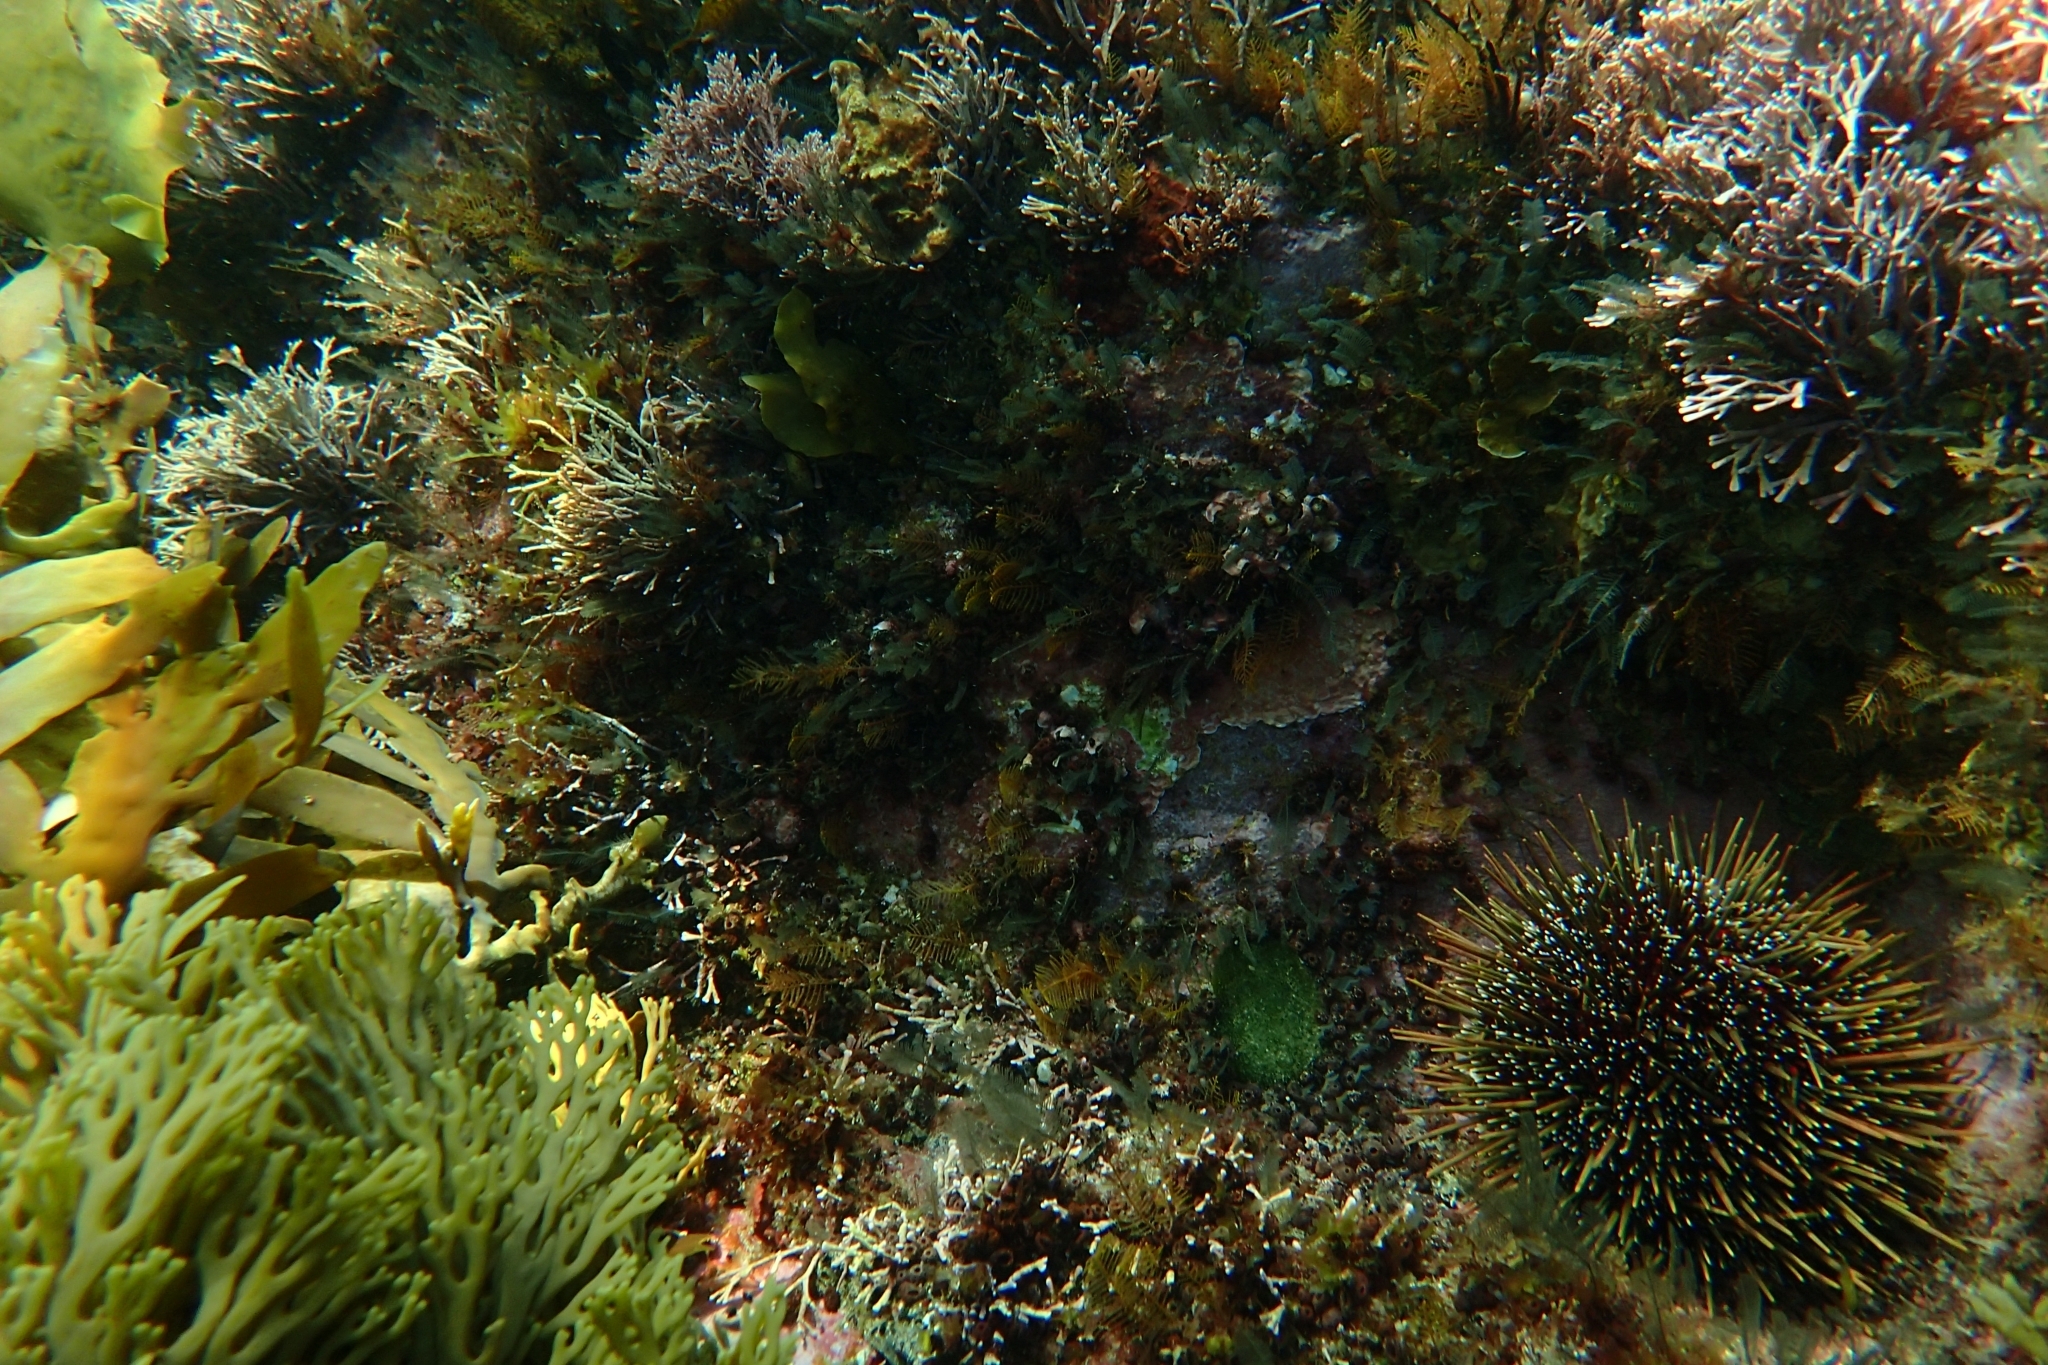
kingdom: Animalia
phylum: Echinodermata
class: Echinoidea
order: Camarodonta
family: Echinometridae
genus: Evechinus
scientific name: Evechinus chloroticus
